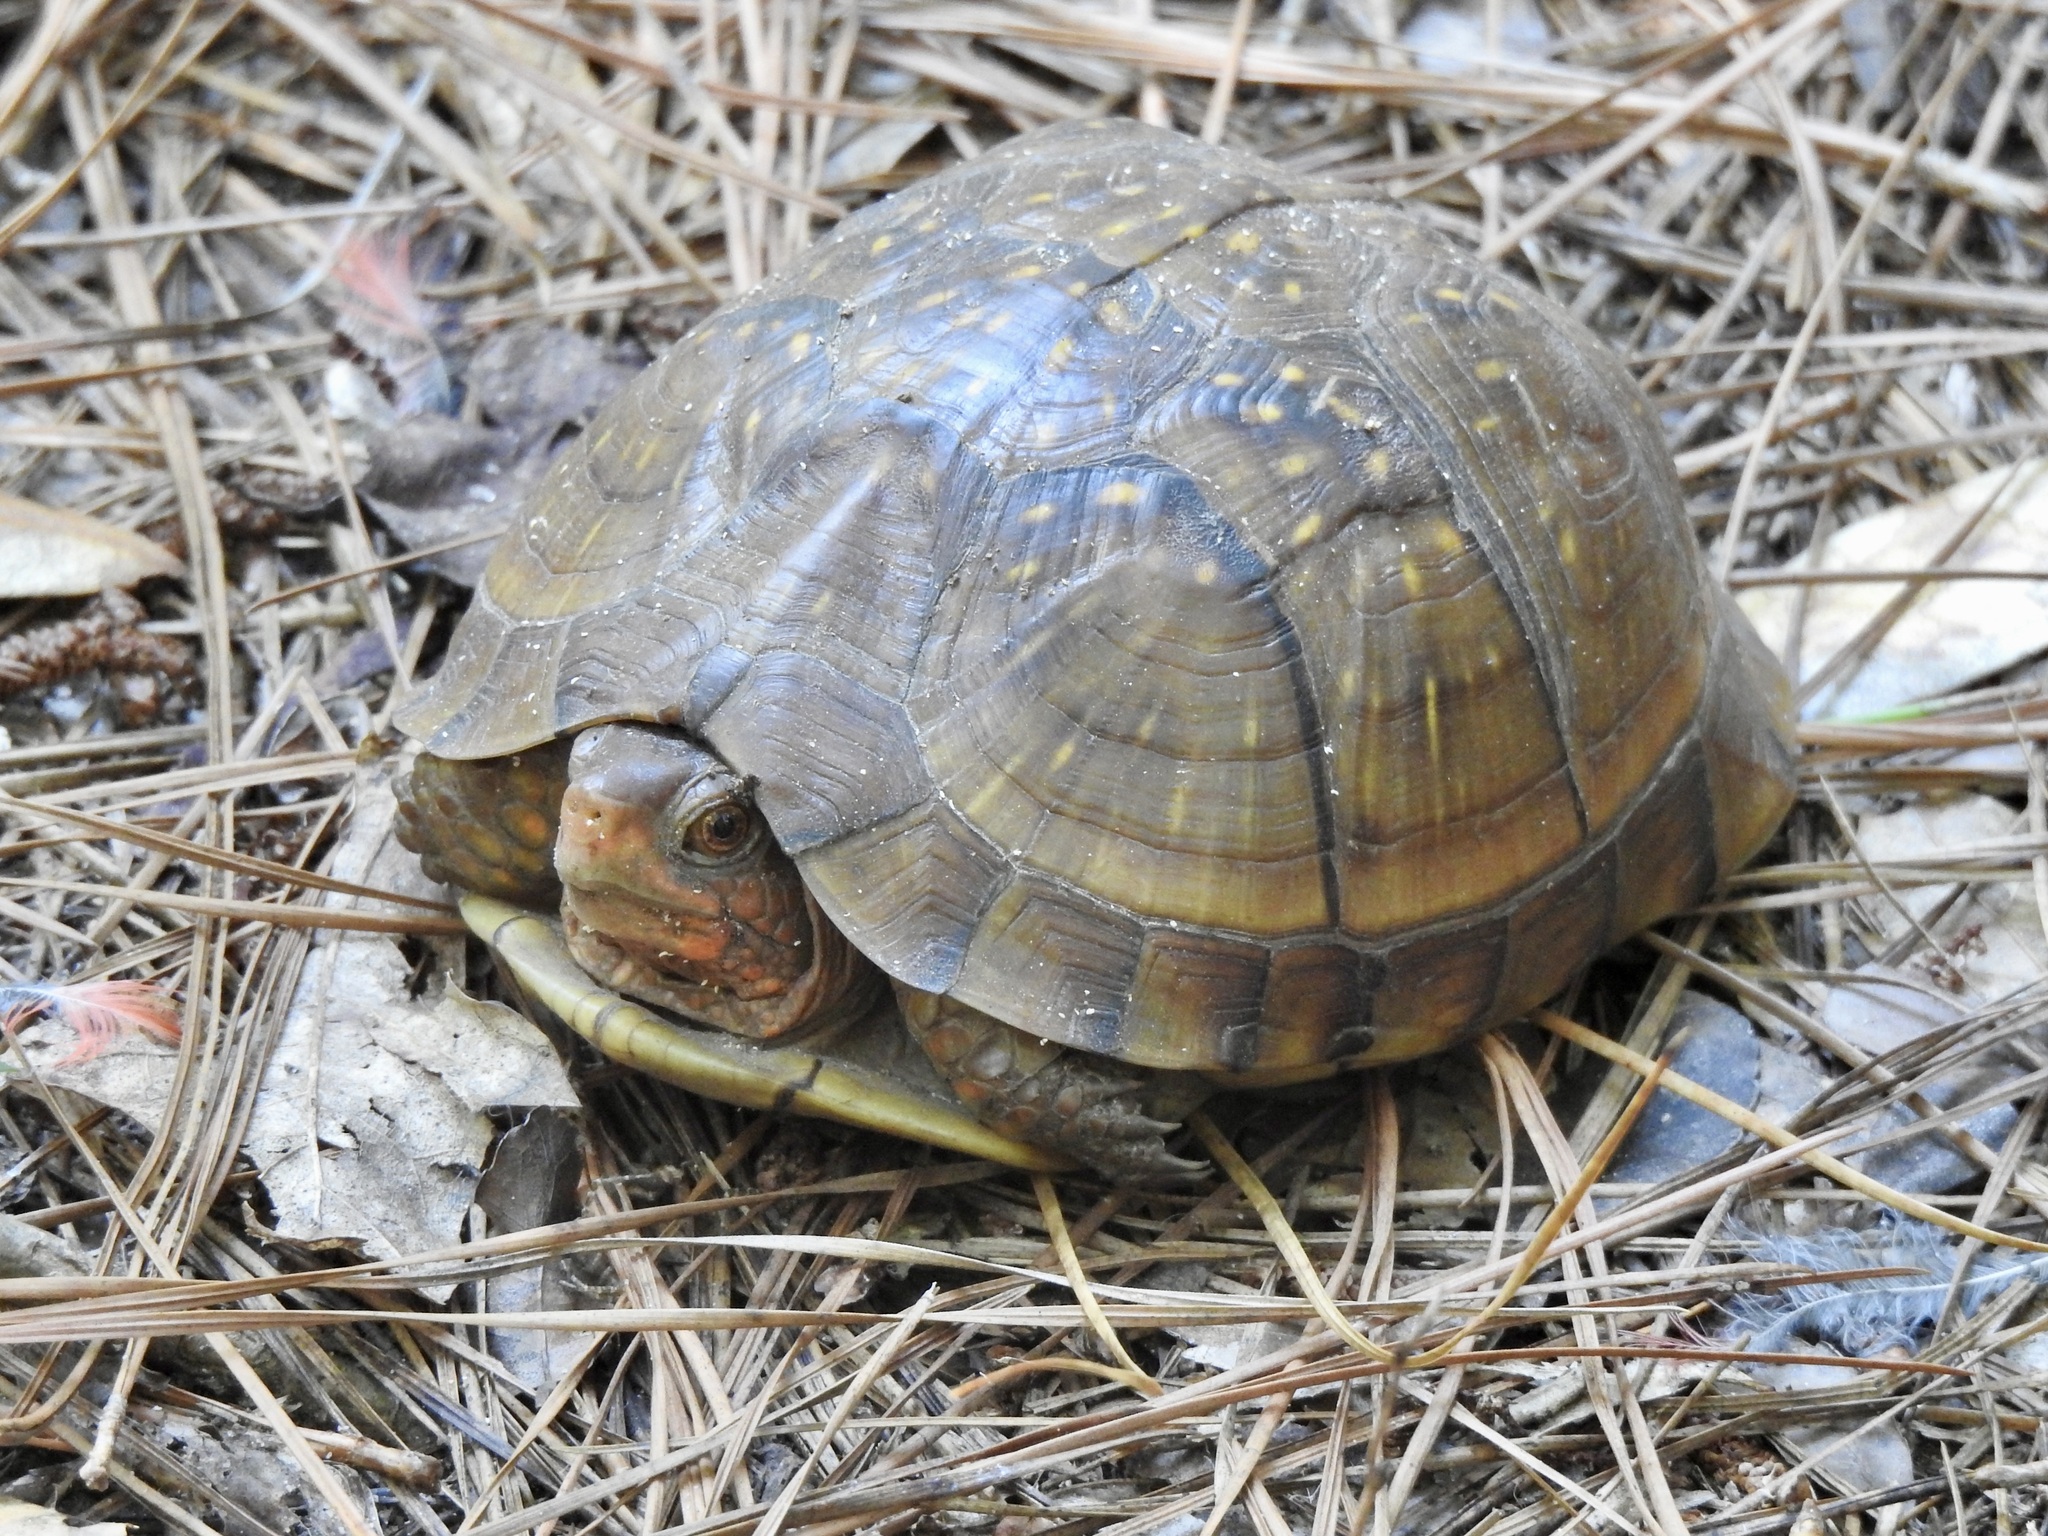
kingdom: Animalia
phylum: Chordata
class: Testudines
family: Emydidae
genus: Terrapene
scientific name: Terrapene carolina
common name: Common box turtle
